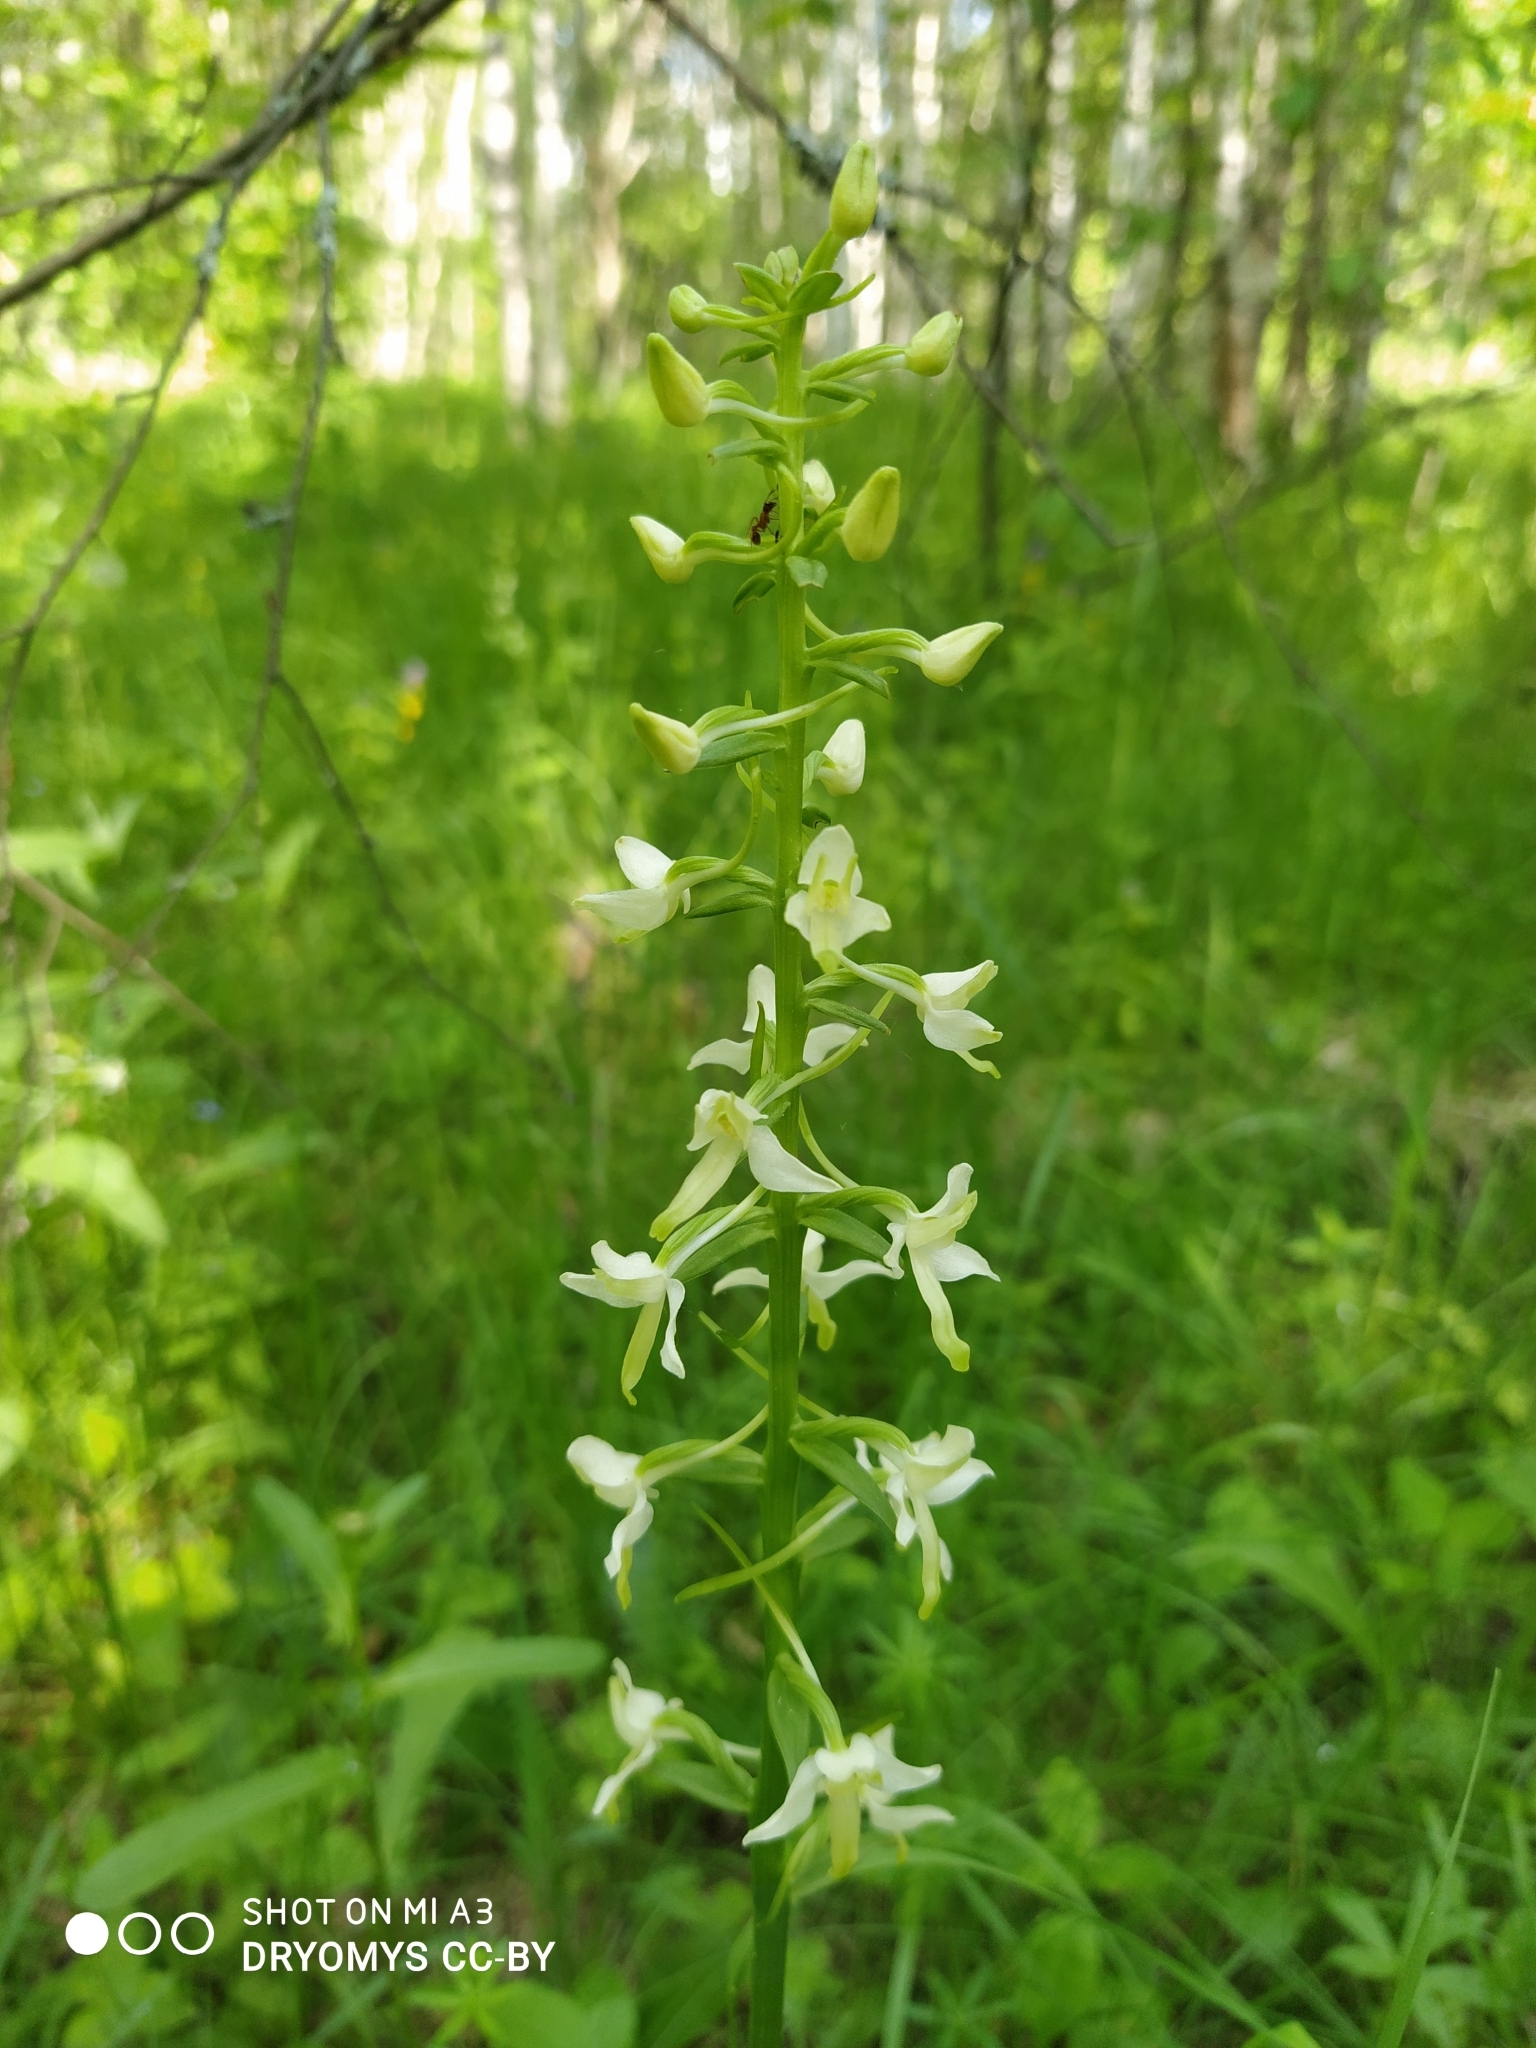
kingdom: Plantae
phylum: Tracheophyta
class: Liliopsida
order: Asparagales
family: Orchidaceae
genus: Platanthera
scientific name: Platanthera bifolia
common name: Lesser butterfly-orchid
